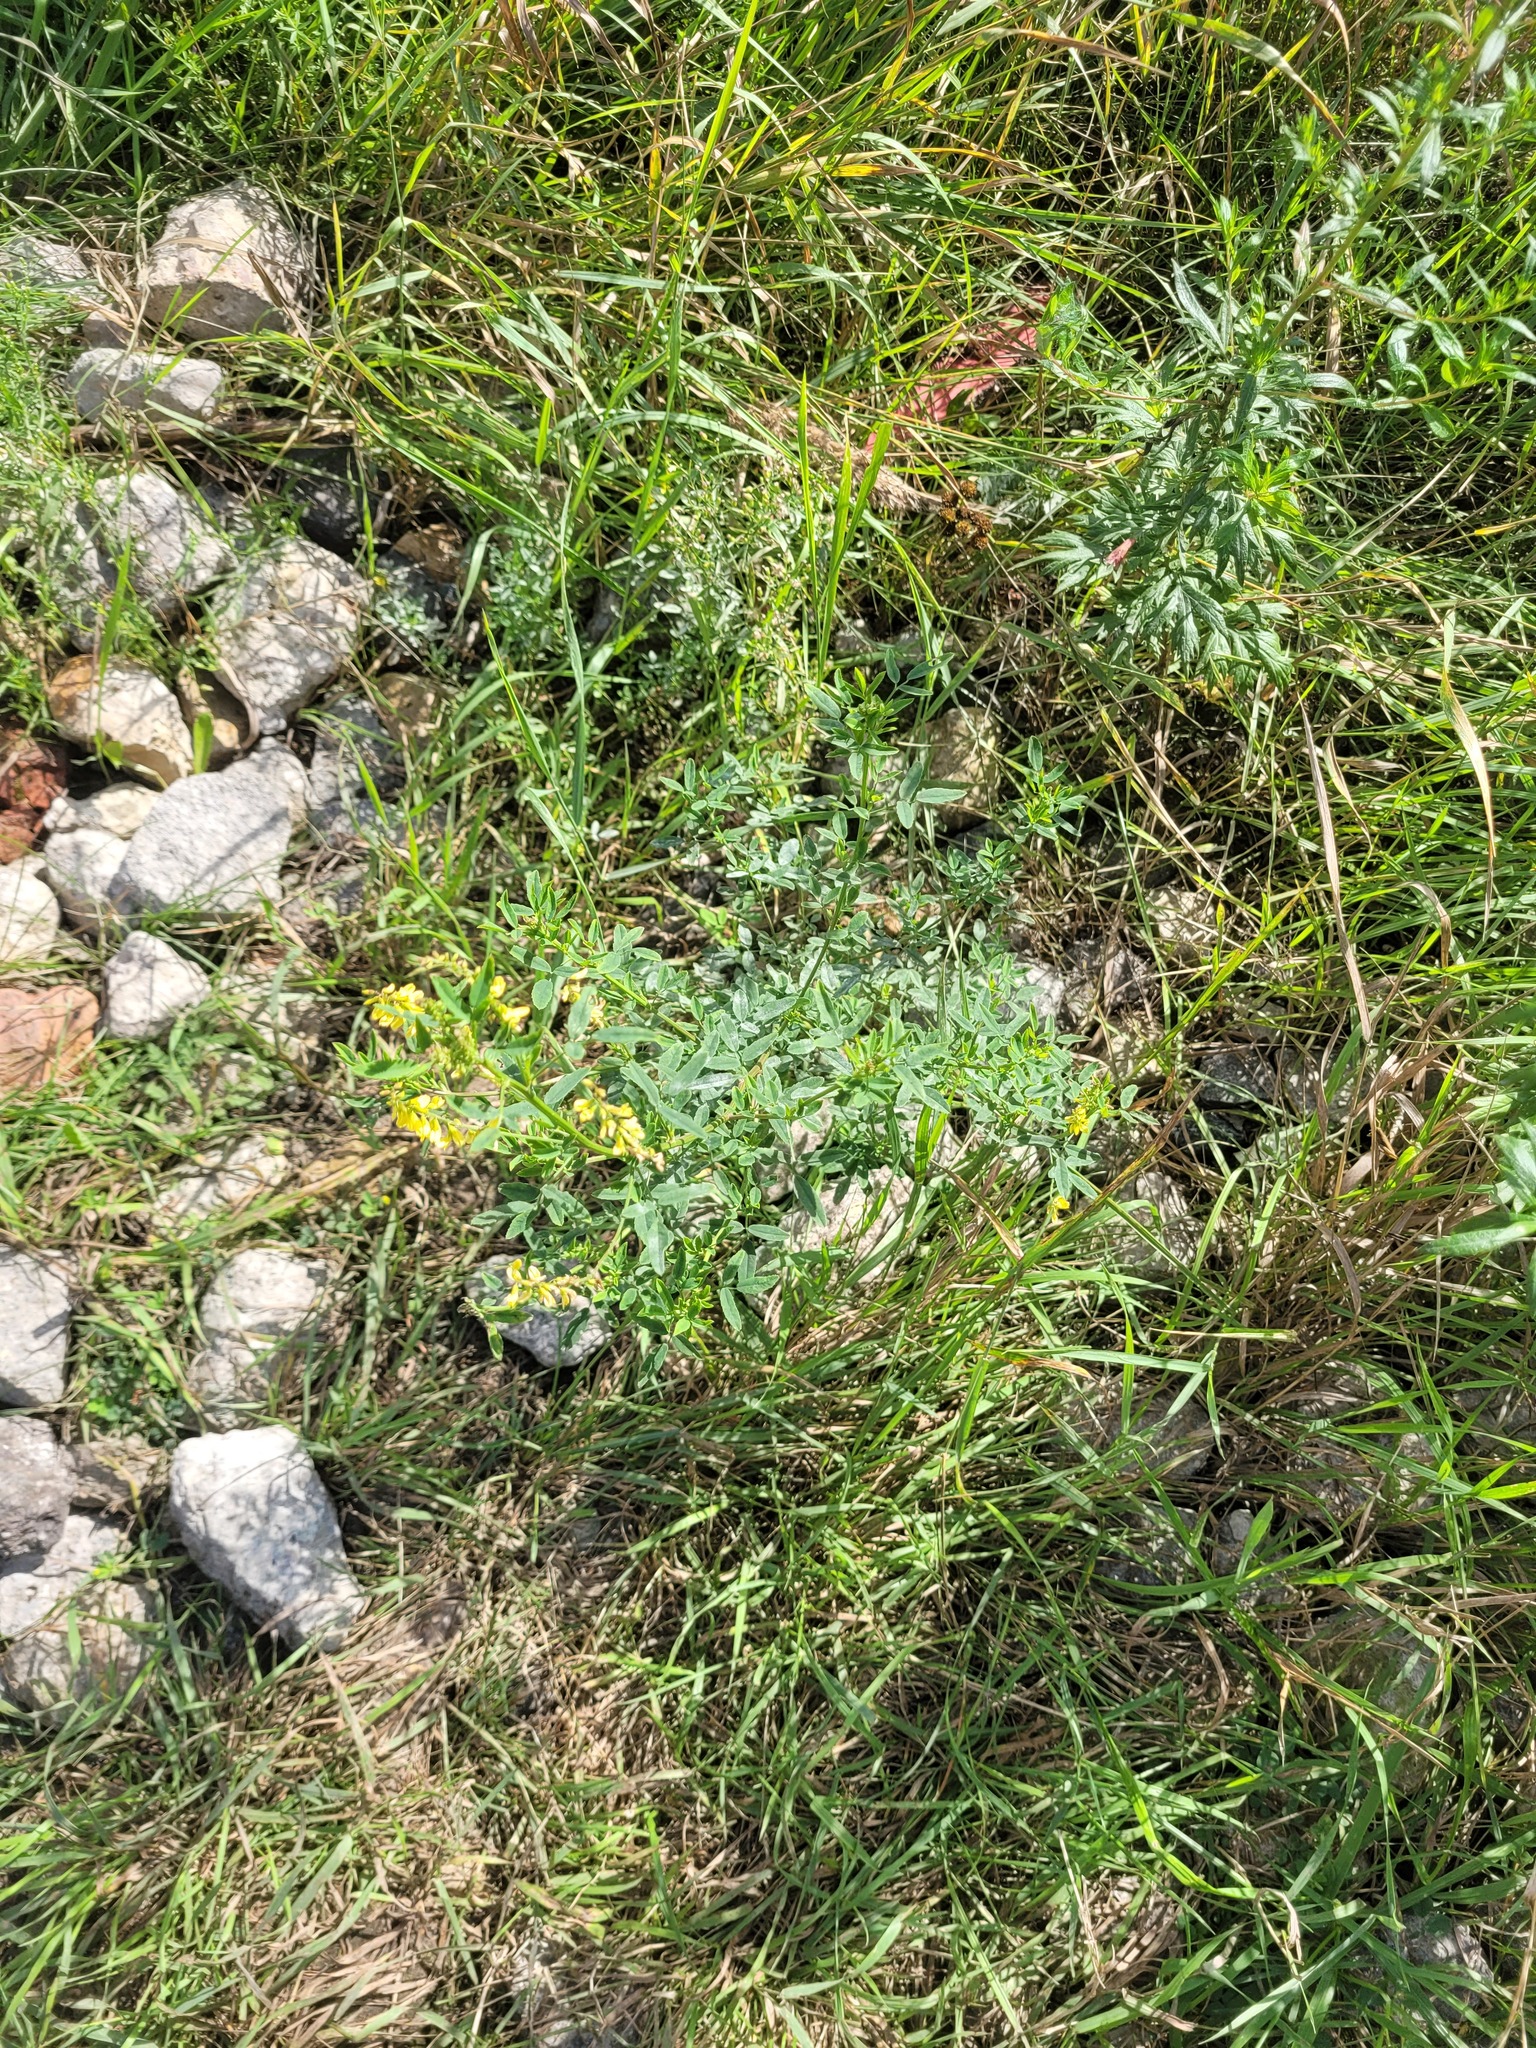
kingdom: Plantae
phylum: Tracheophyta
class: Magnoliopsida
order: Fabales
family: Fabaceae
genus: Melilotus
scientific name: Melilotus officinalis
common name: Sweetclover
